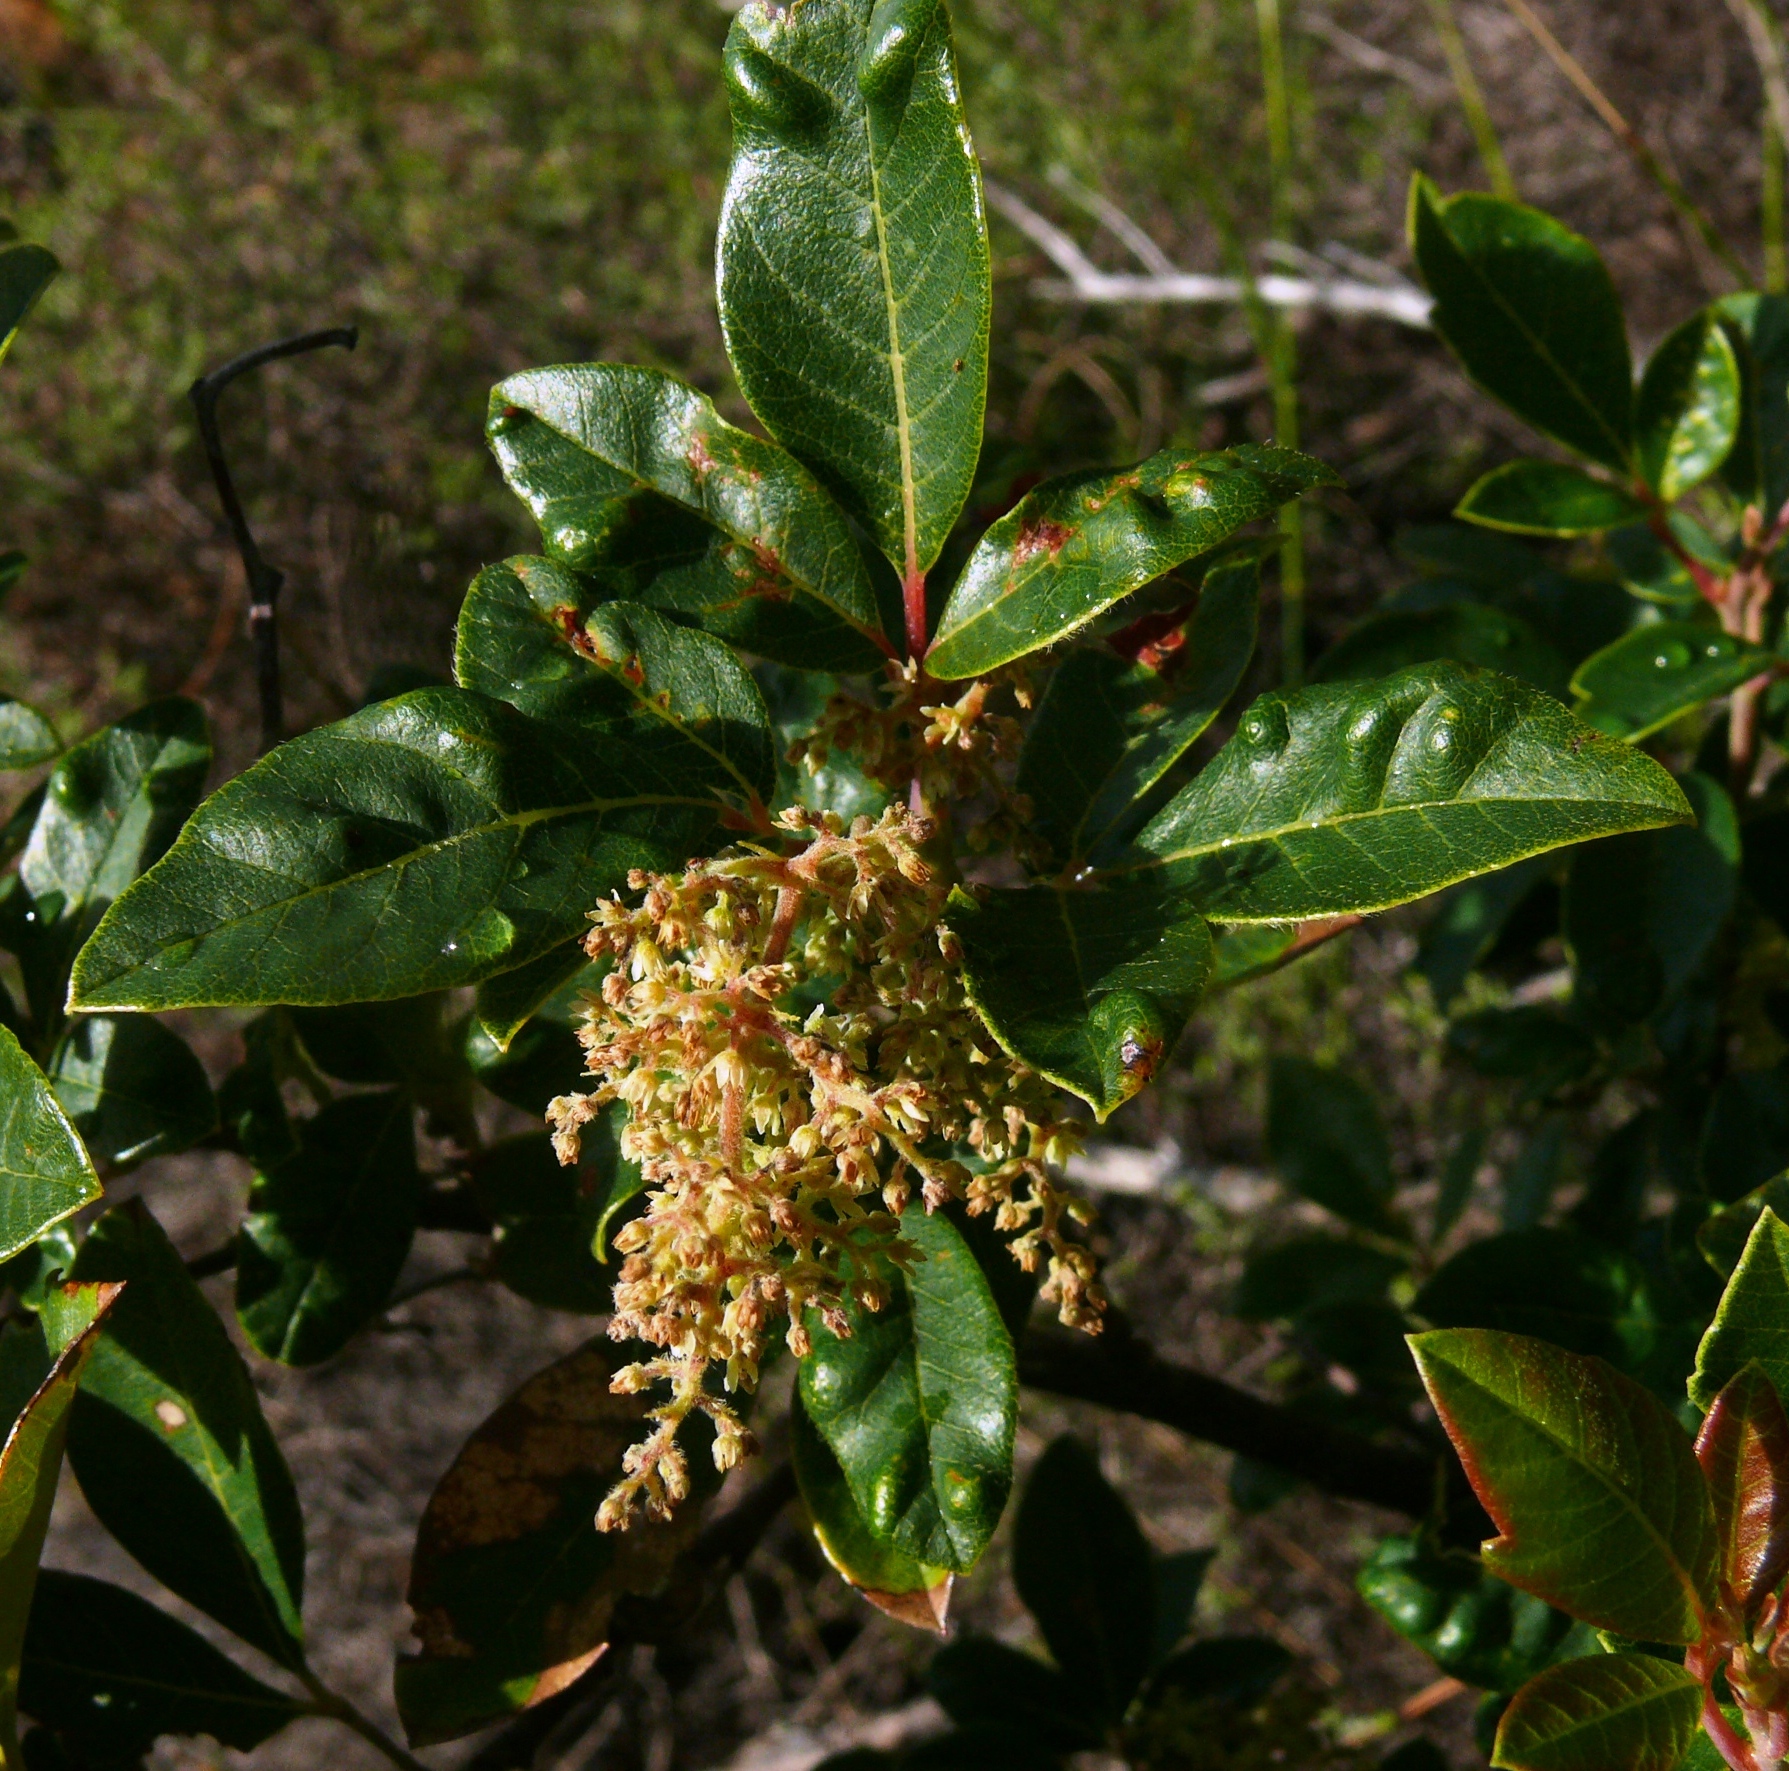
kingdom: Plantae
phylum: Tracheophyta
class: Magnoliopsida
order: Sapindales
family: Anacardiaceae
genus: Searsia
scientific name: Searsia tomentosa
